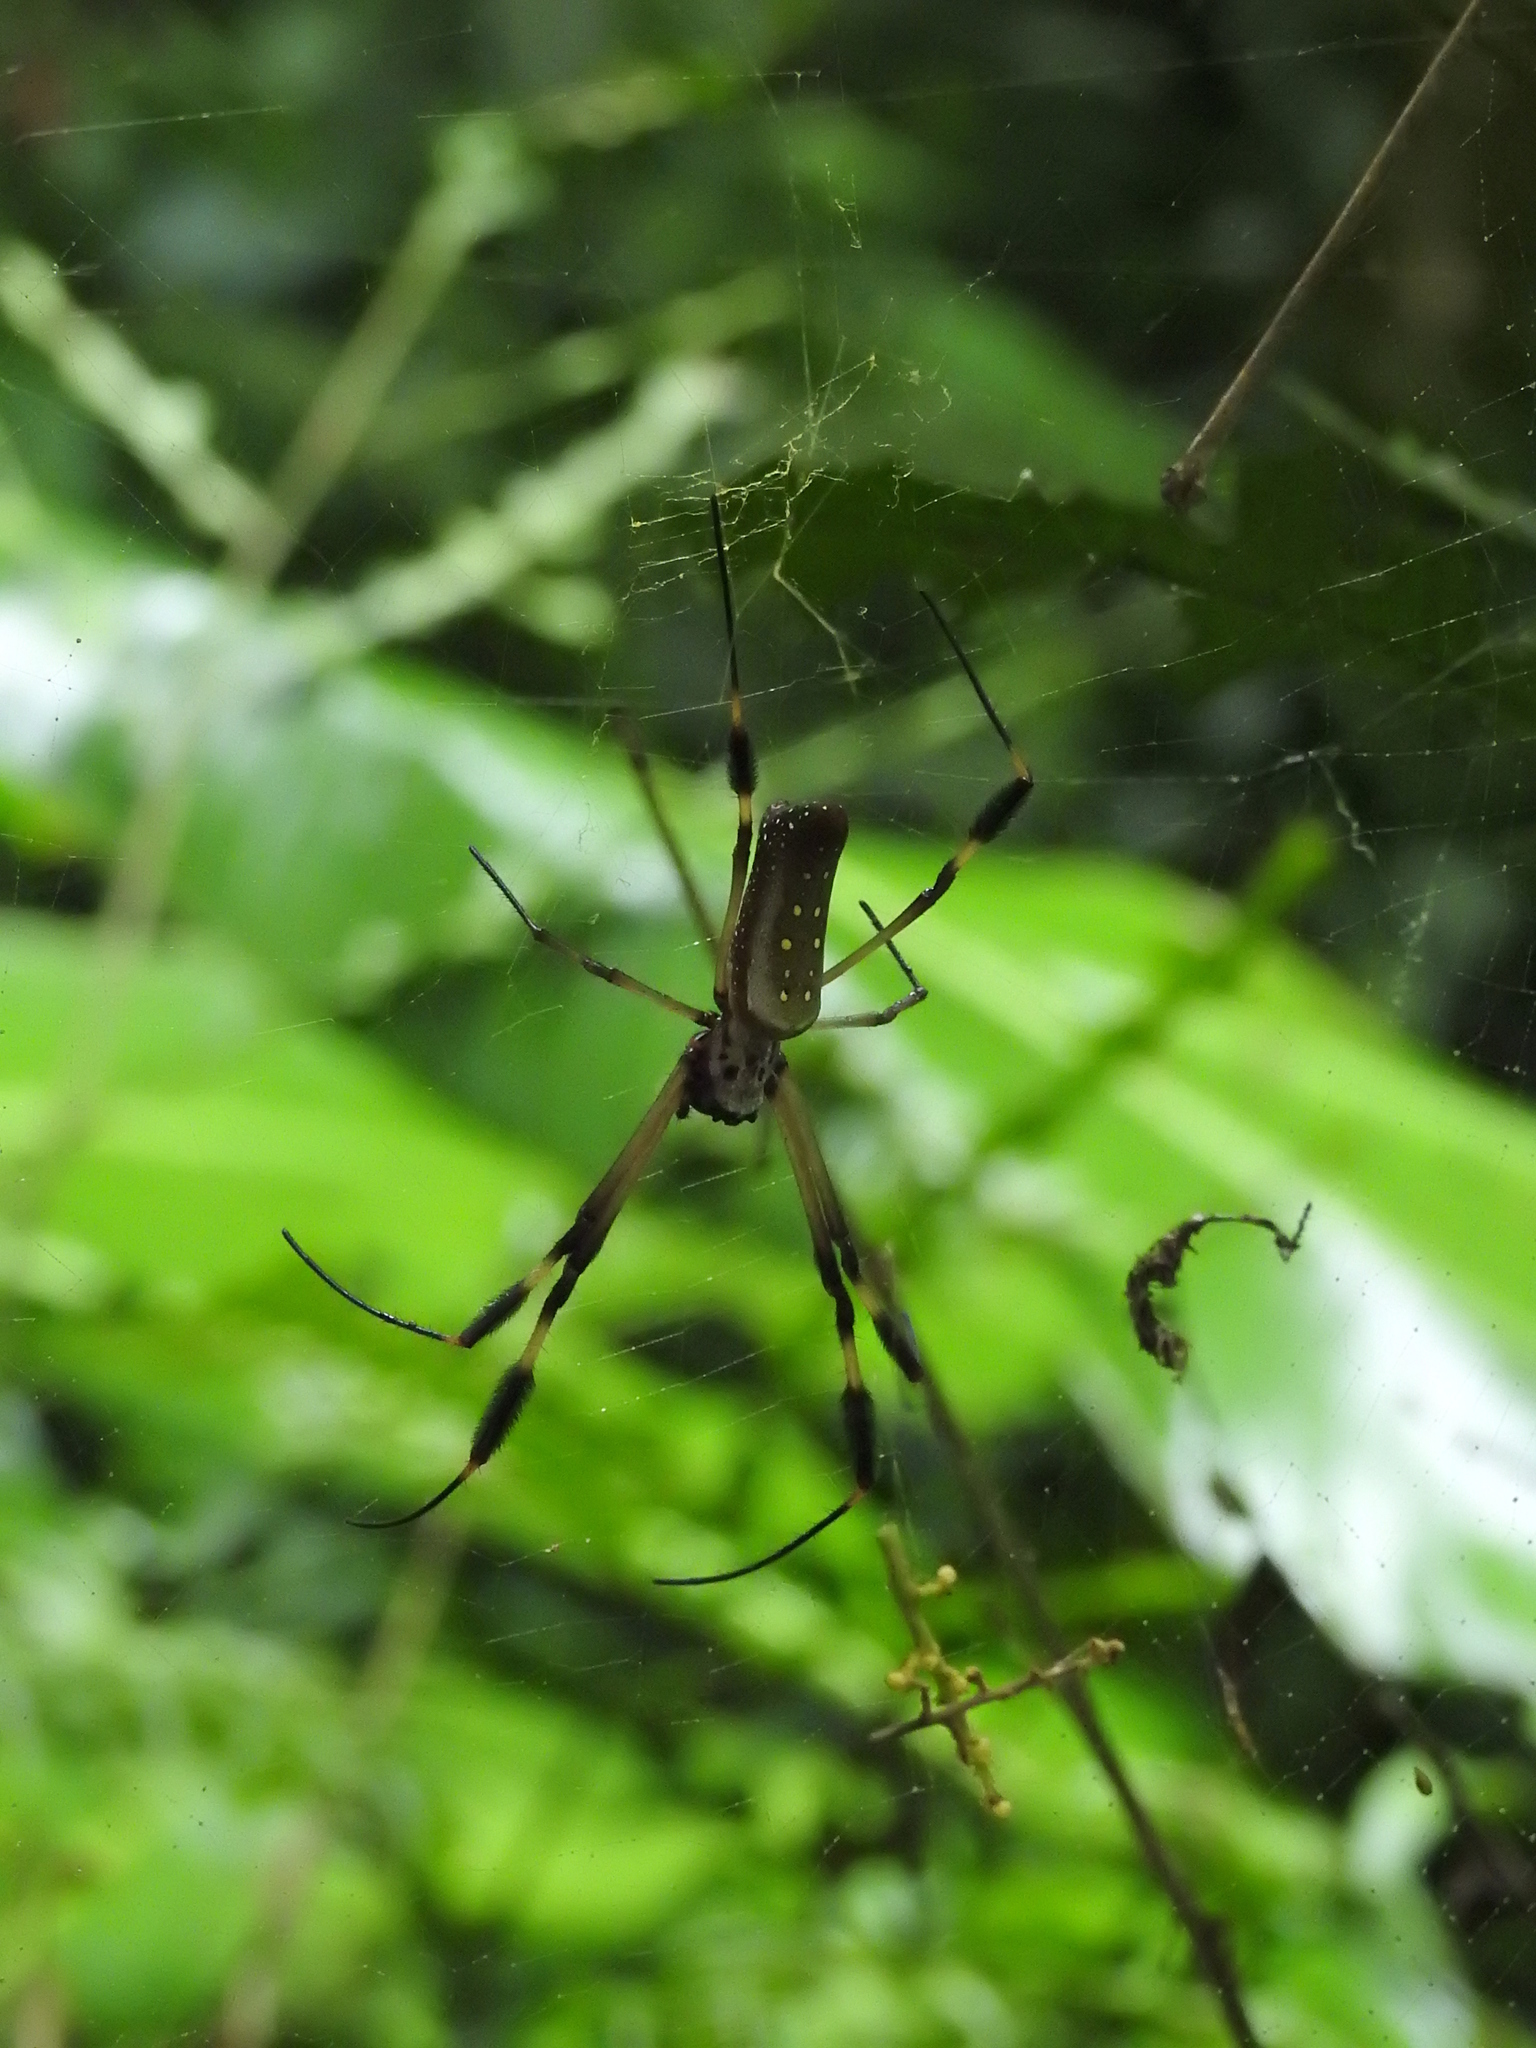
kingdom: Animalia
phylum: Arthropoda
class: Arachnida
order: Araneae
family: Araneidae
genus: Trichonephila
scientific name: Trichonephila clavipes
